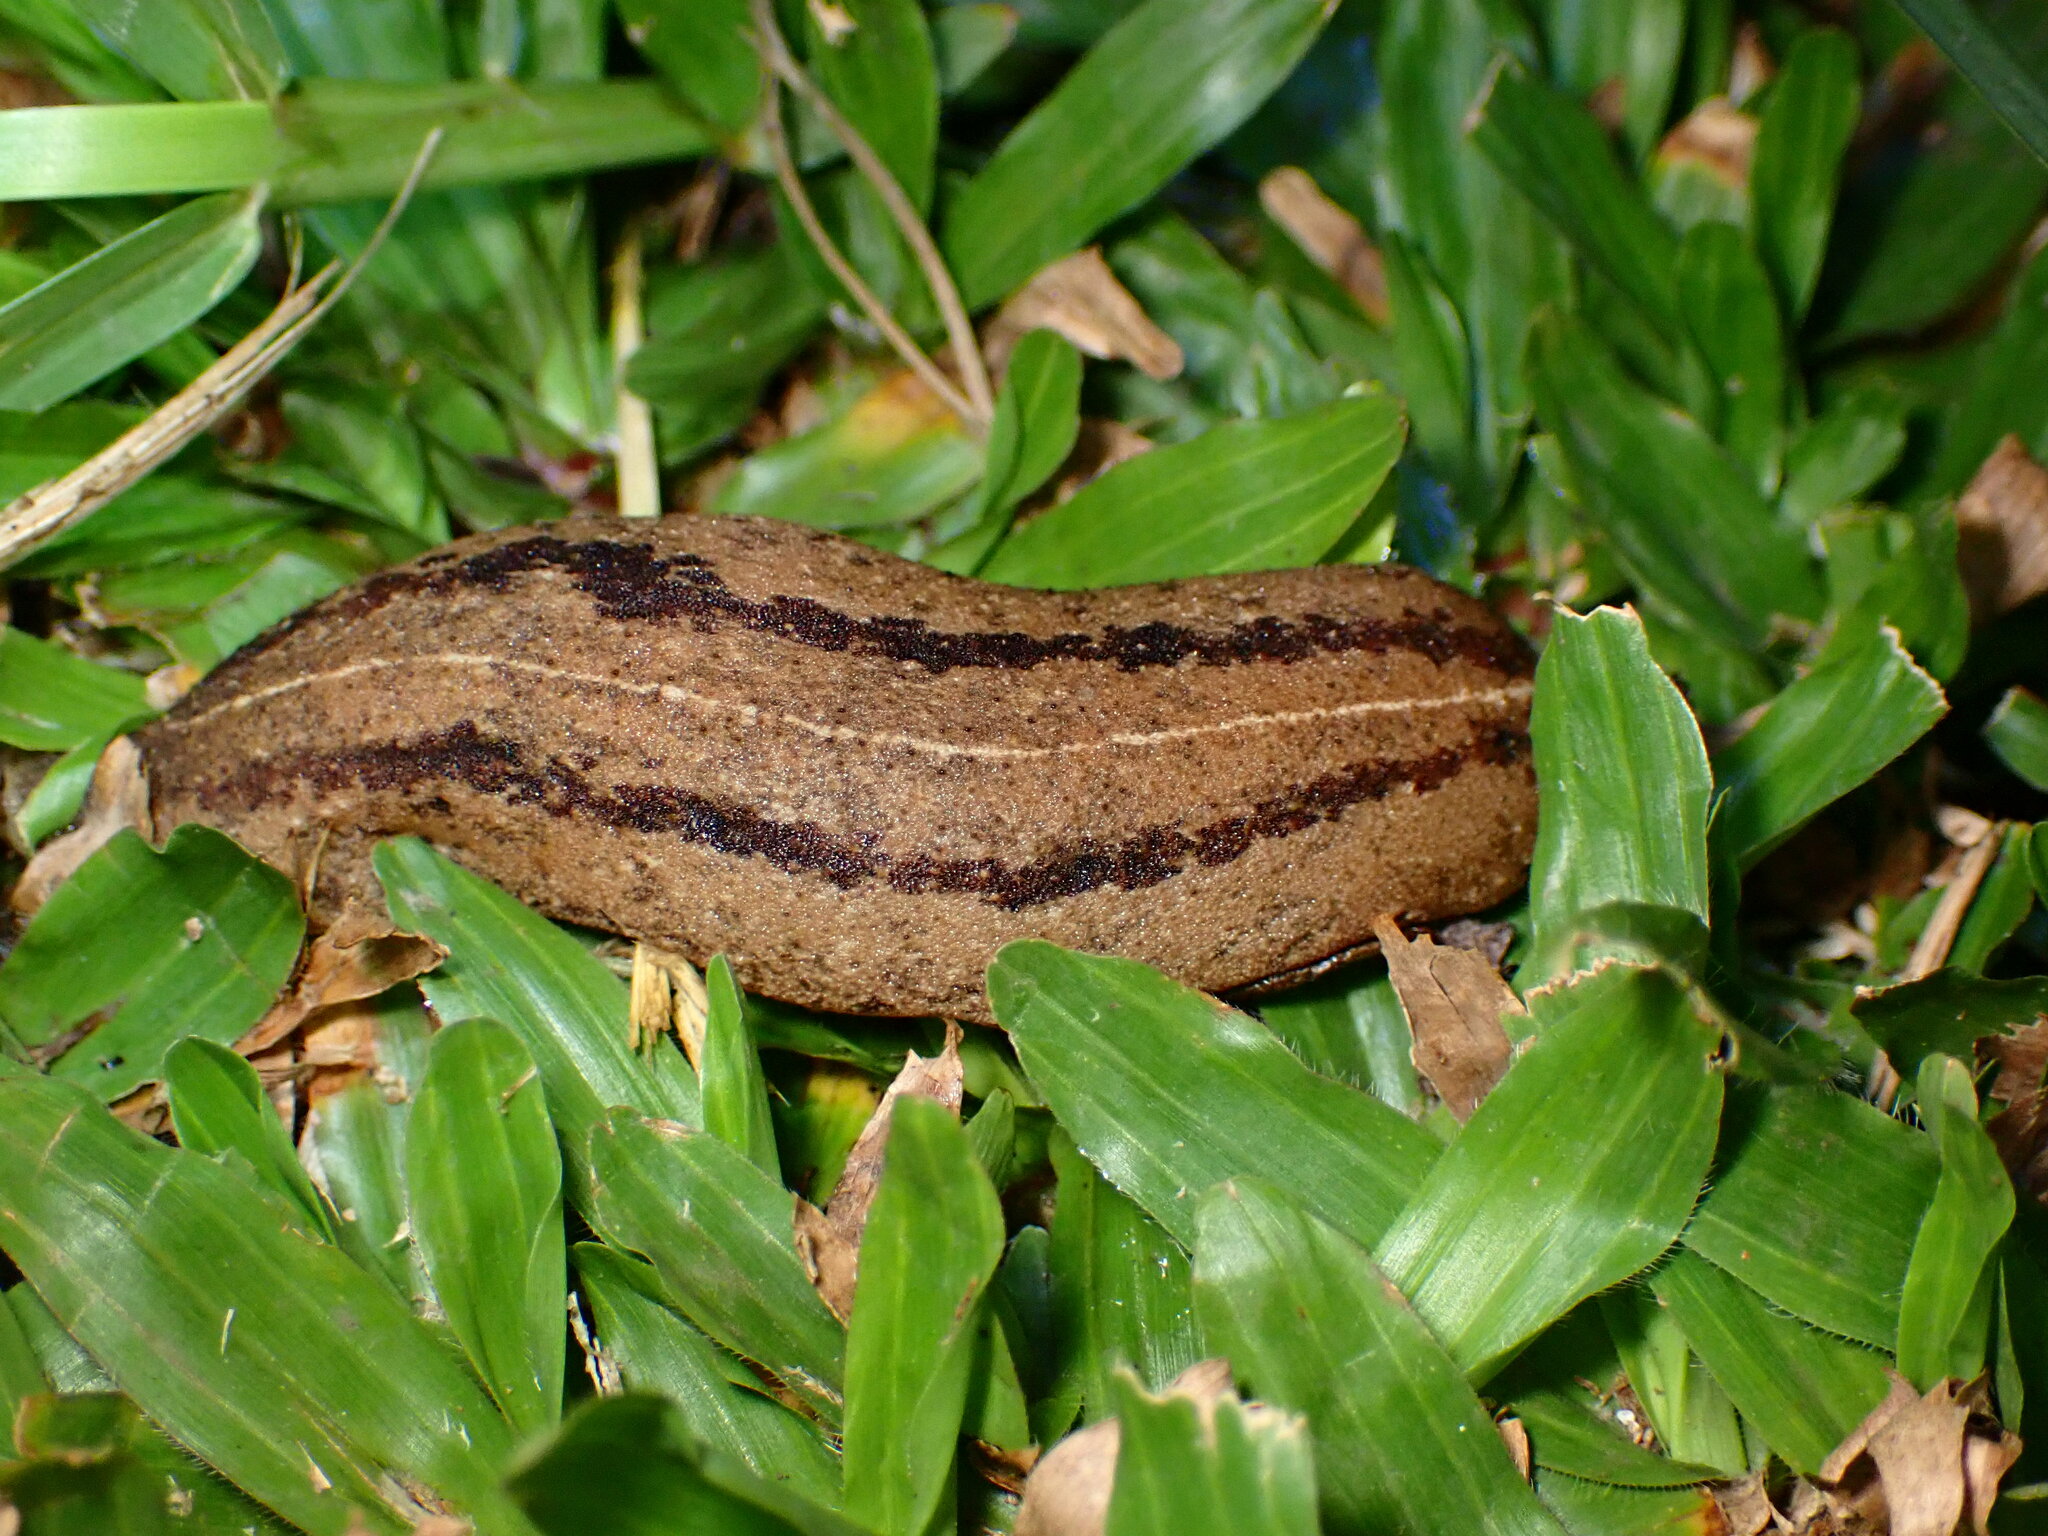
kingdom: Animalia
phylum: Mollusca
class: Gastropoda
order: Systellommatophora
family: Veronicellidae
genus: Veronicella
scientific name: Veronicella cubensis
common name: Two striped slug
